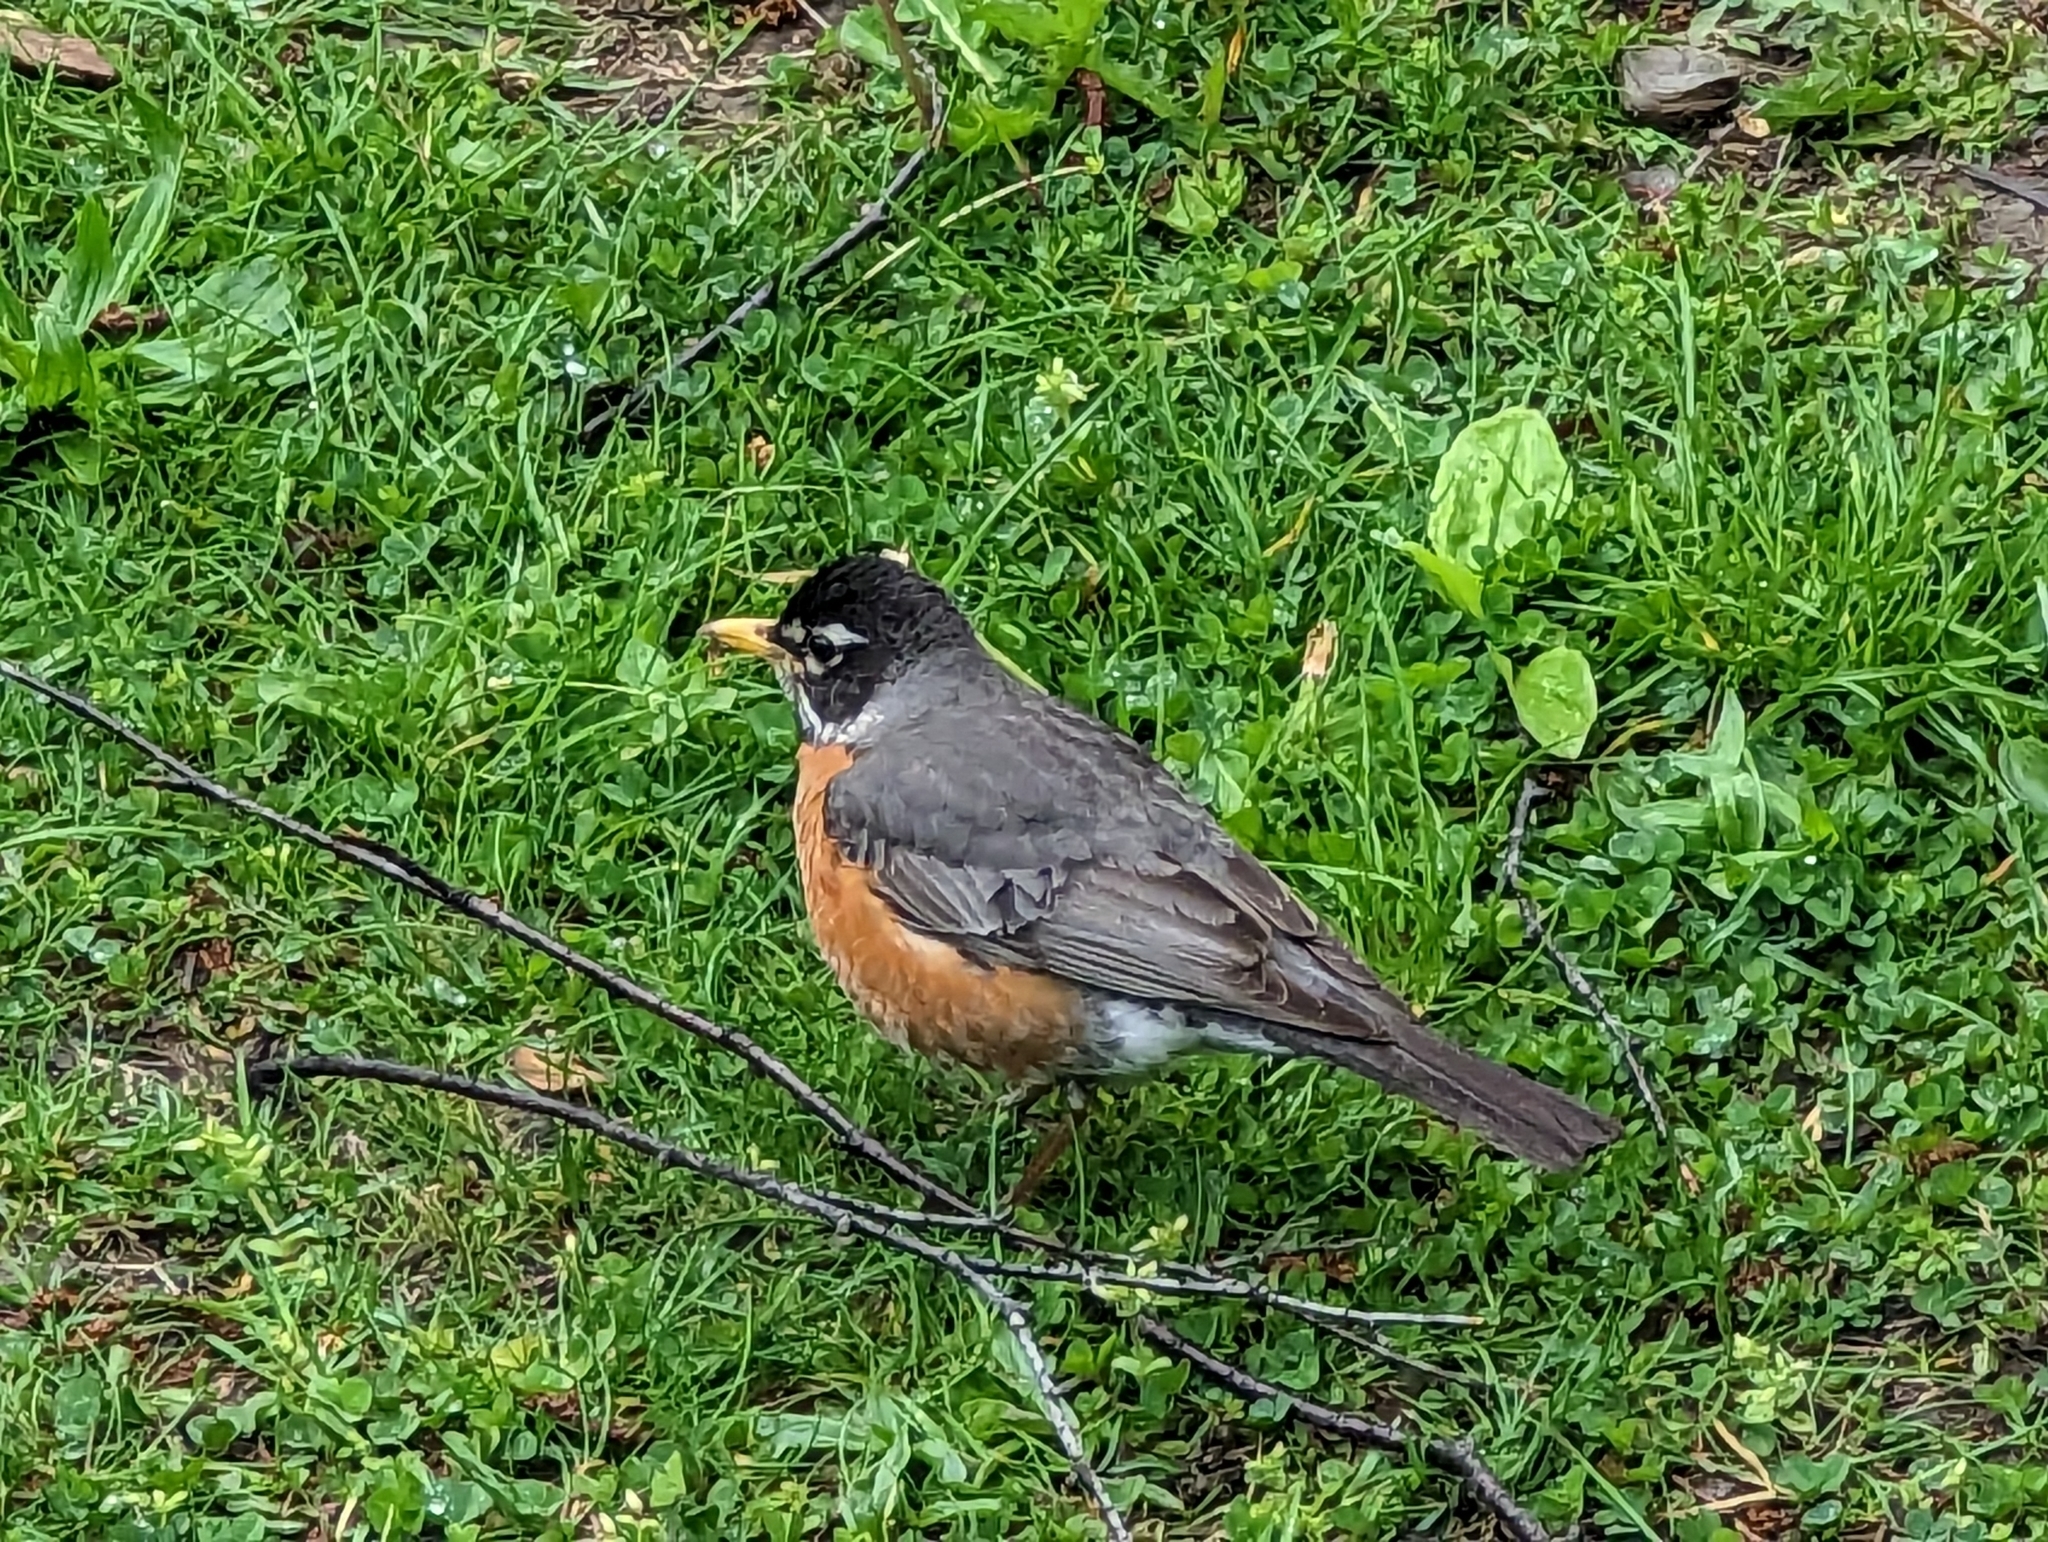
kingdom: Animalia
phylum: Chordata
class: Aves
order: Passeriformes
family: Turdidae
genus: Turdus
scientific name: Turdus migratorius
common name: American robin
